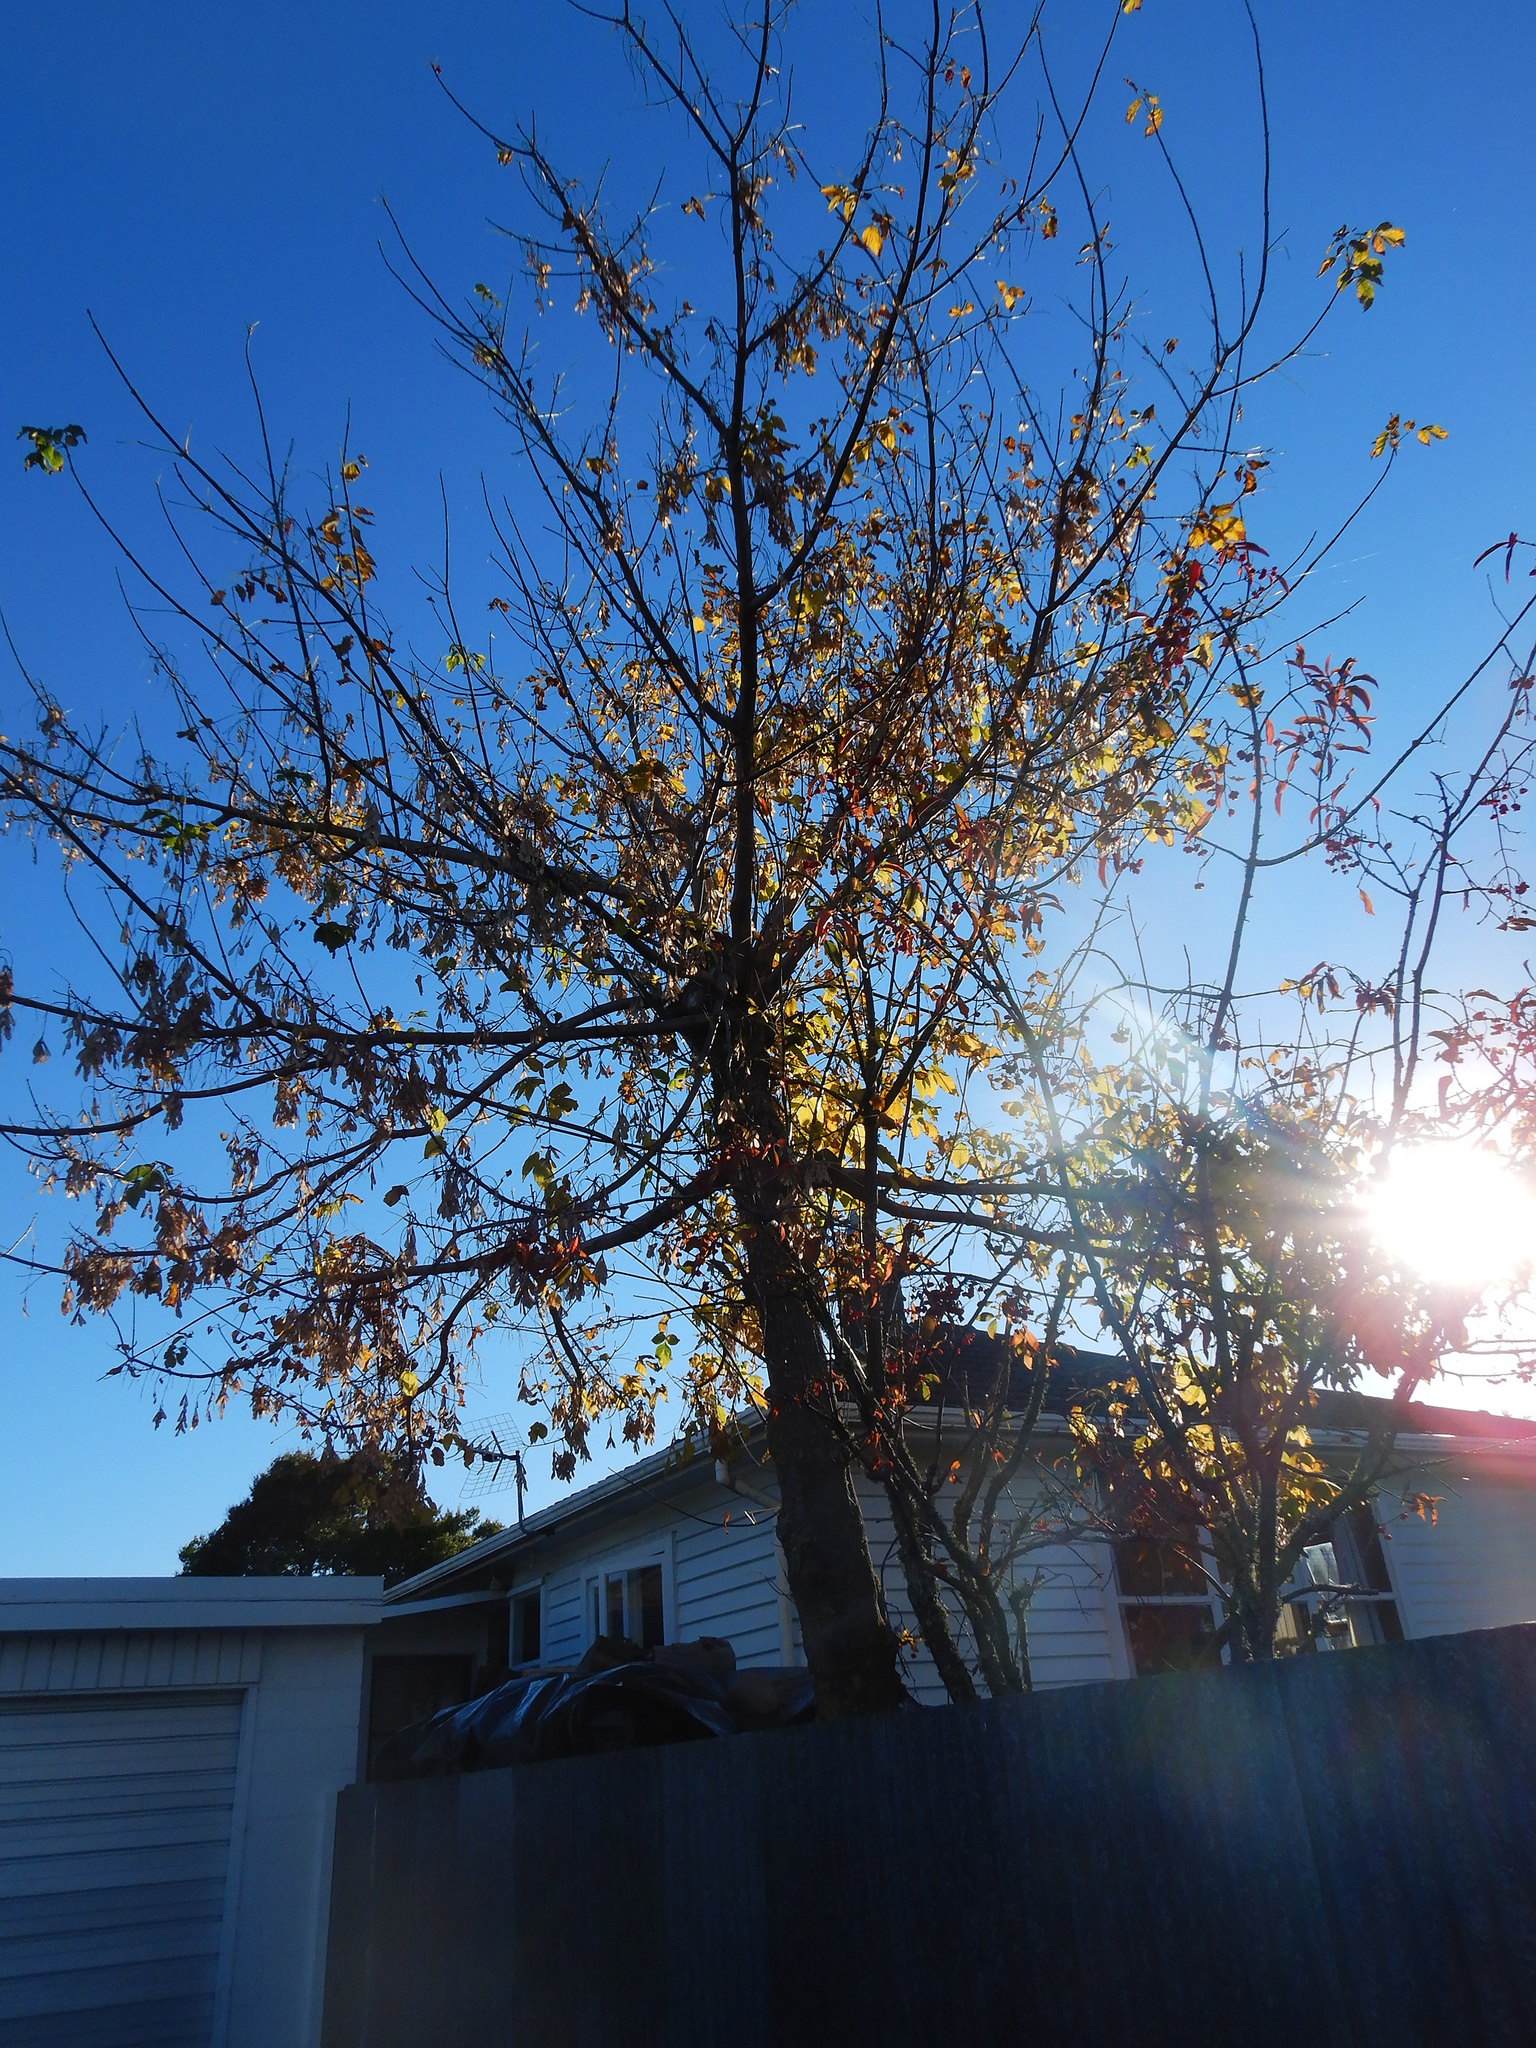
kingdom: Plantae
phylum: Tracheophyta
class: Magnoliopsida
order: Sapindales
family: Sapindaceae
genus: Acer
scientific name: Acer negundo
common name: Ashleaf maple
